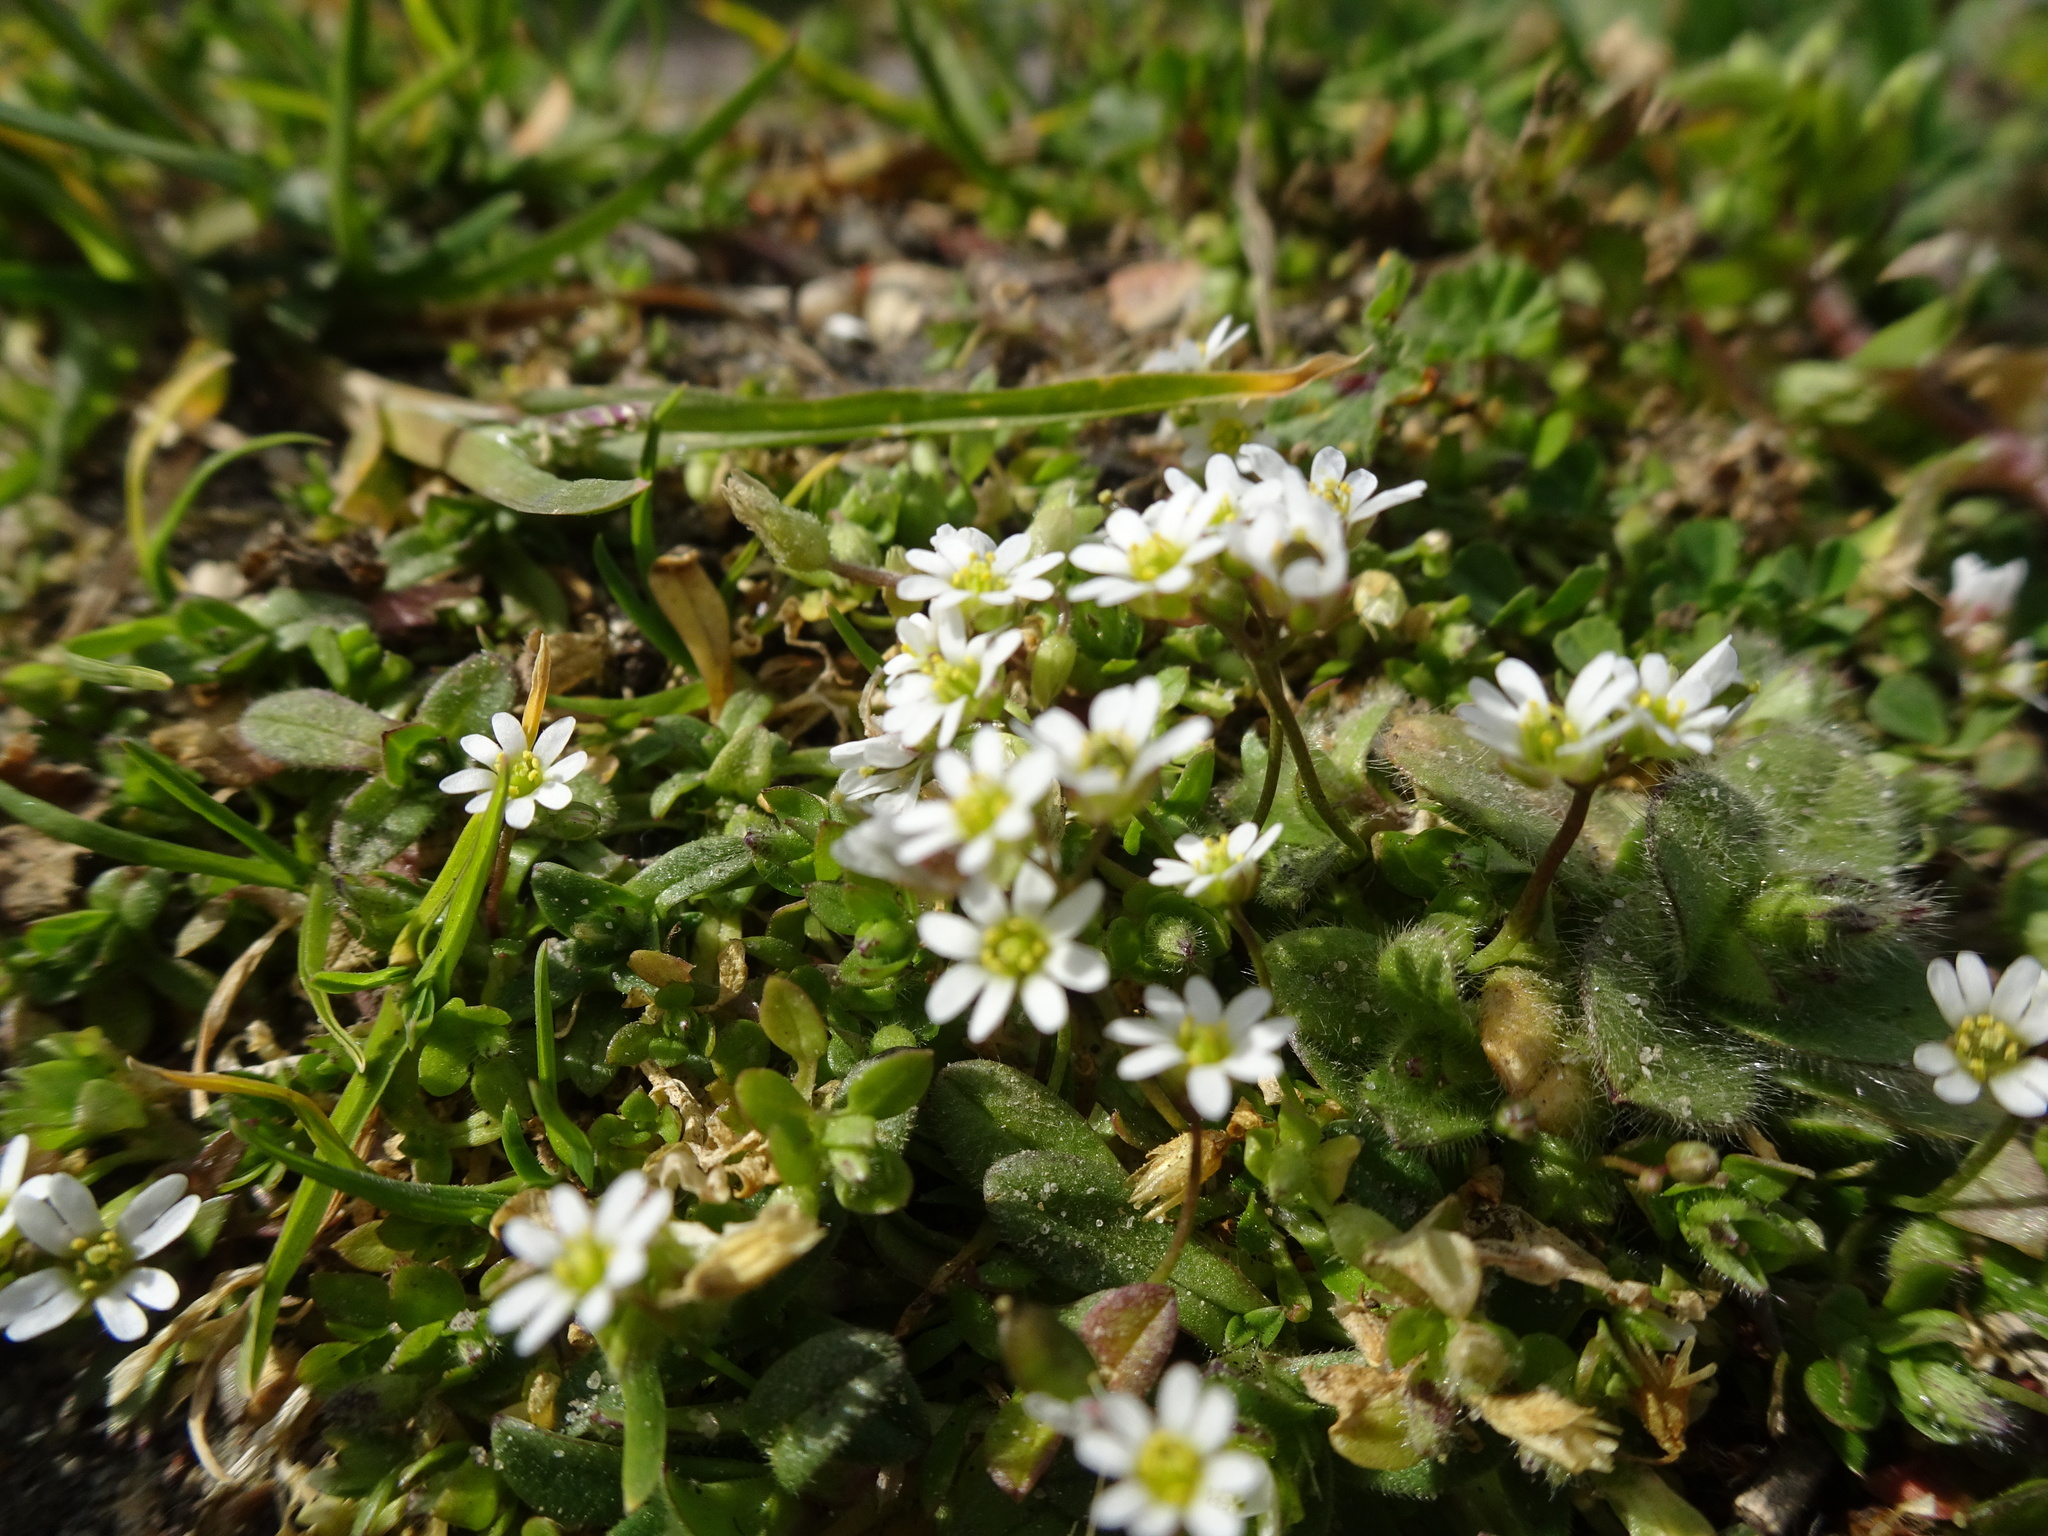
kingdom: Plantae
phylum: Tracheophyta
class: Magnoliopsida
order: Brassicales
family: Brassicaceae
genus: Draba
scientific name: Draba verna
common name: Spring draba
